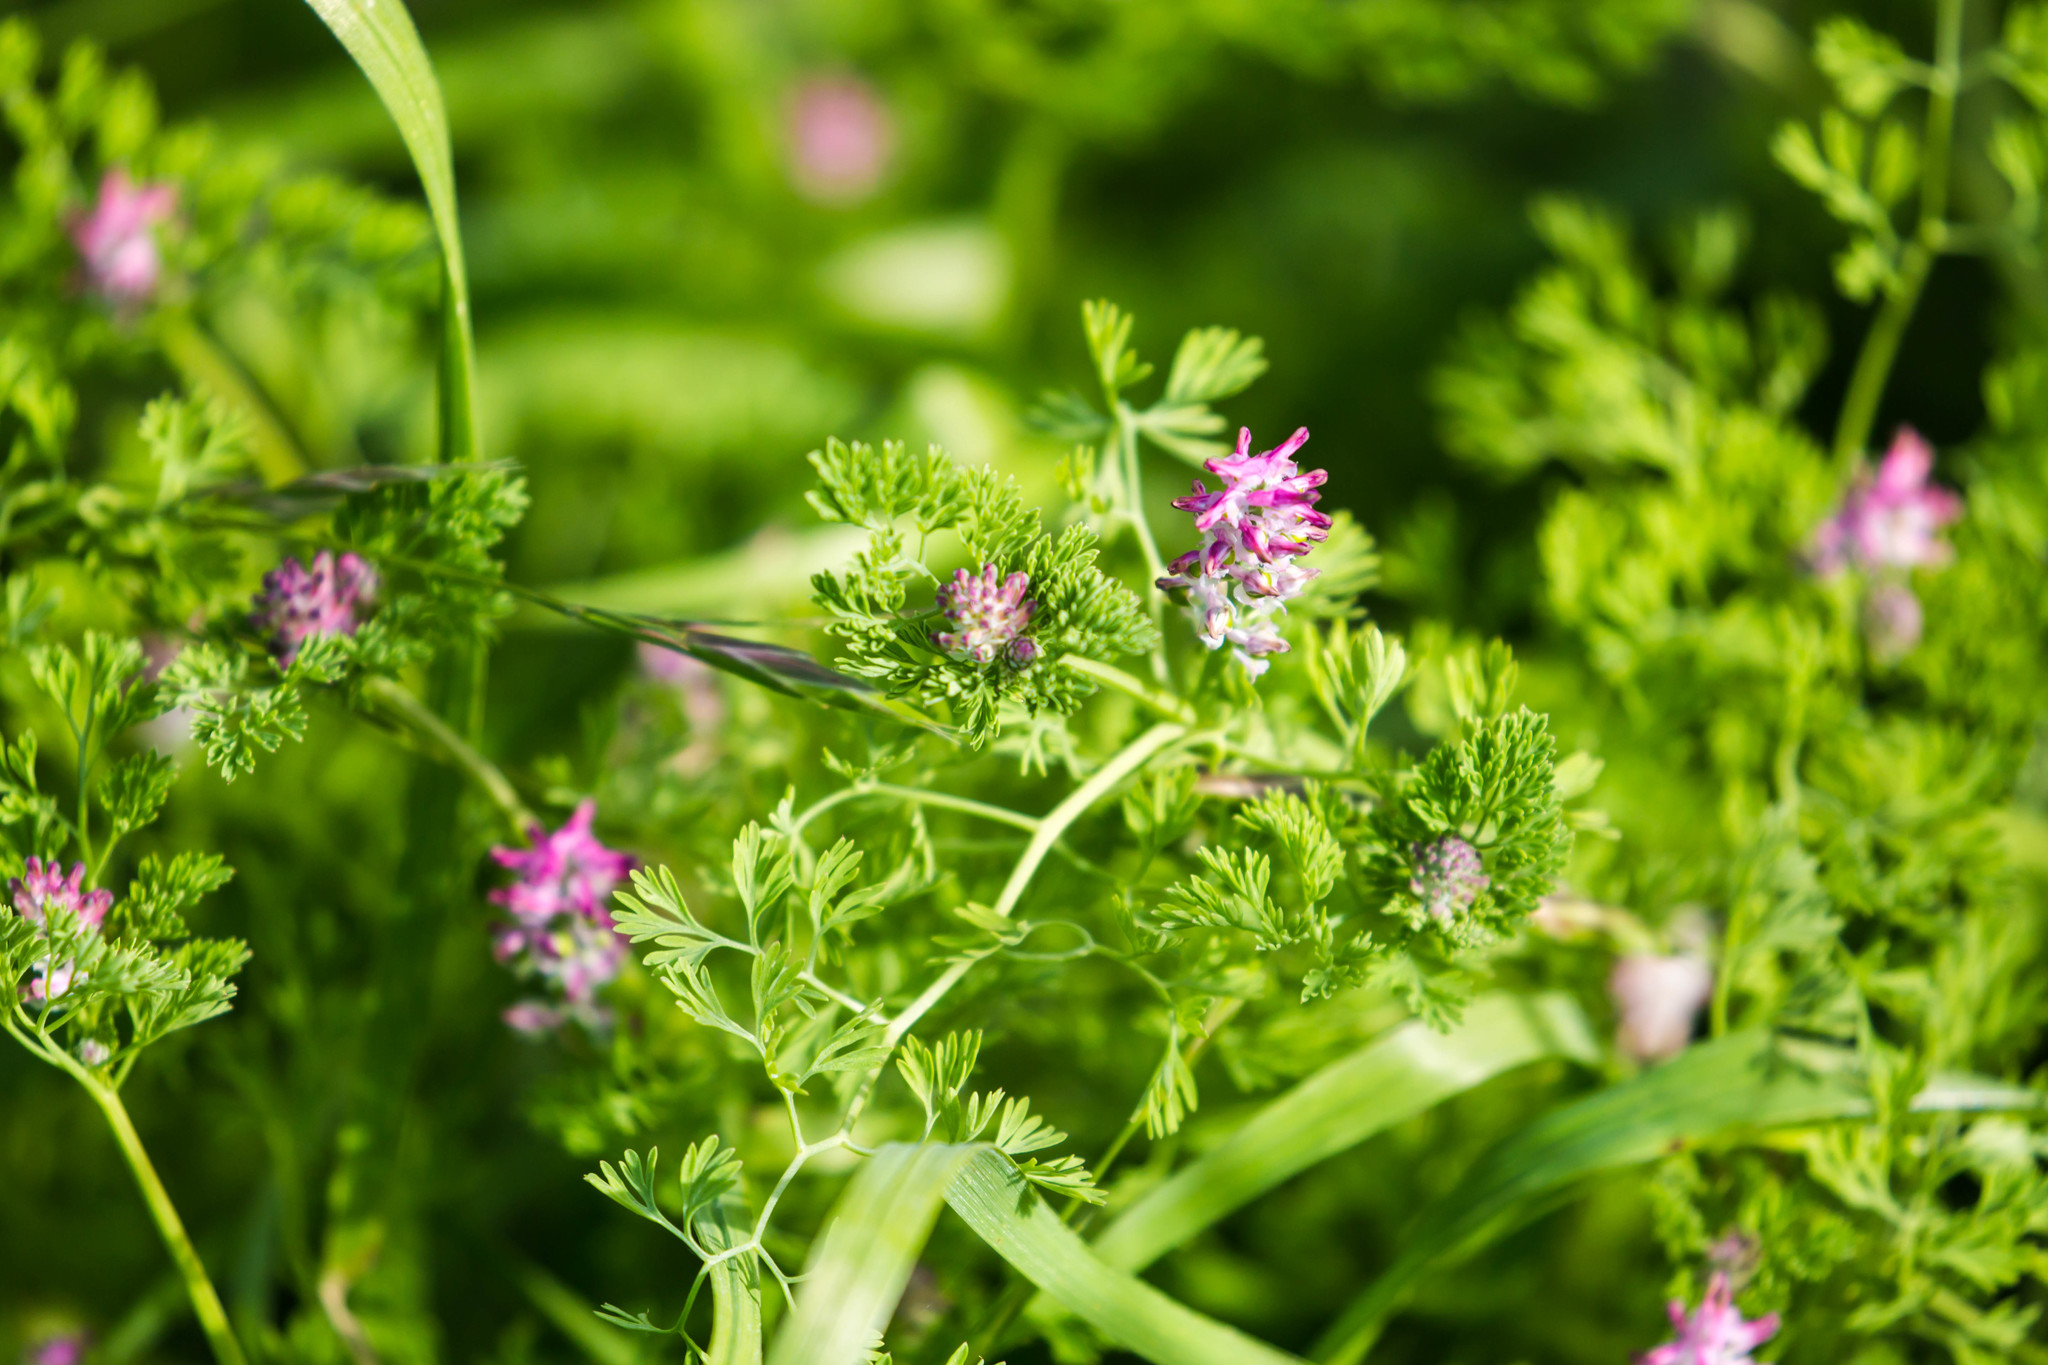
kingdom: Plantae
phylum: Tracheophyta
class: Magnoliopsida
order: Ranunculales
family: Papaveraceae
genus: Fumaria
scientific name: Fumaria densiflora
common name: Dense-flowered fumitory
